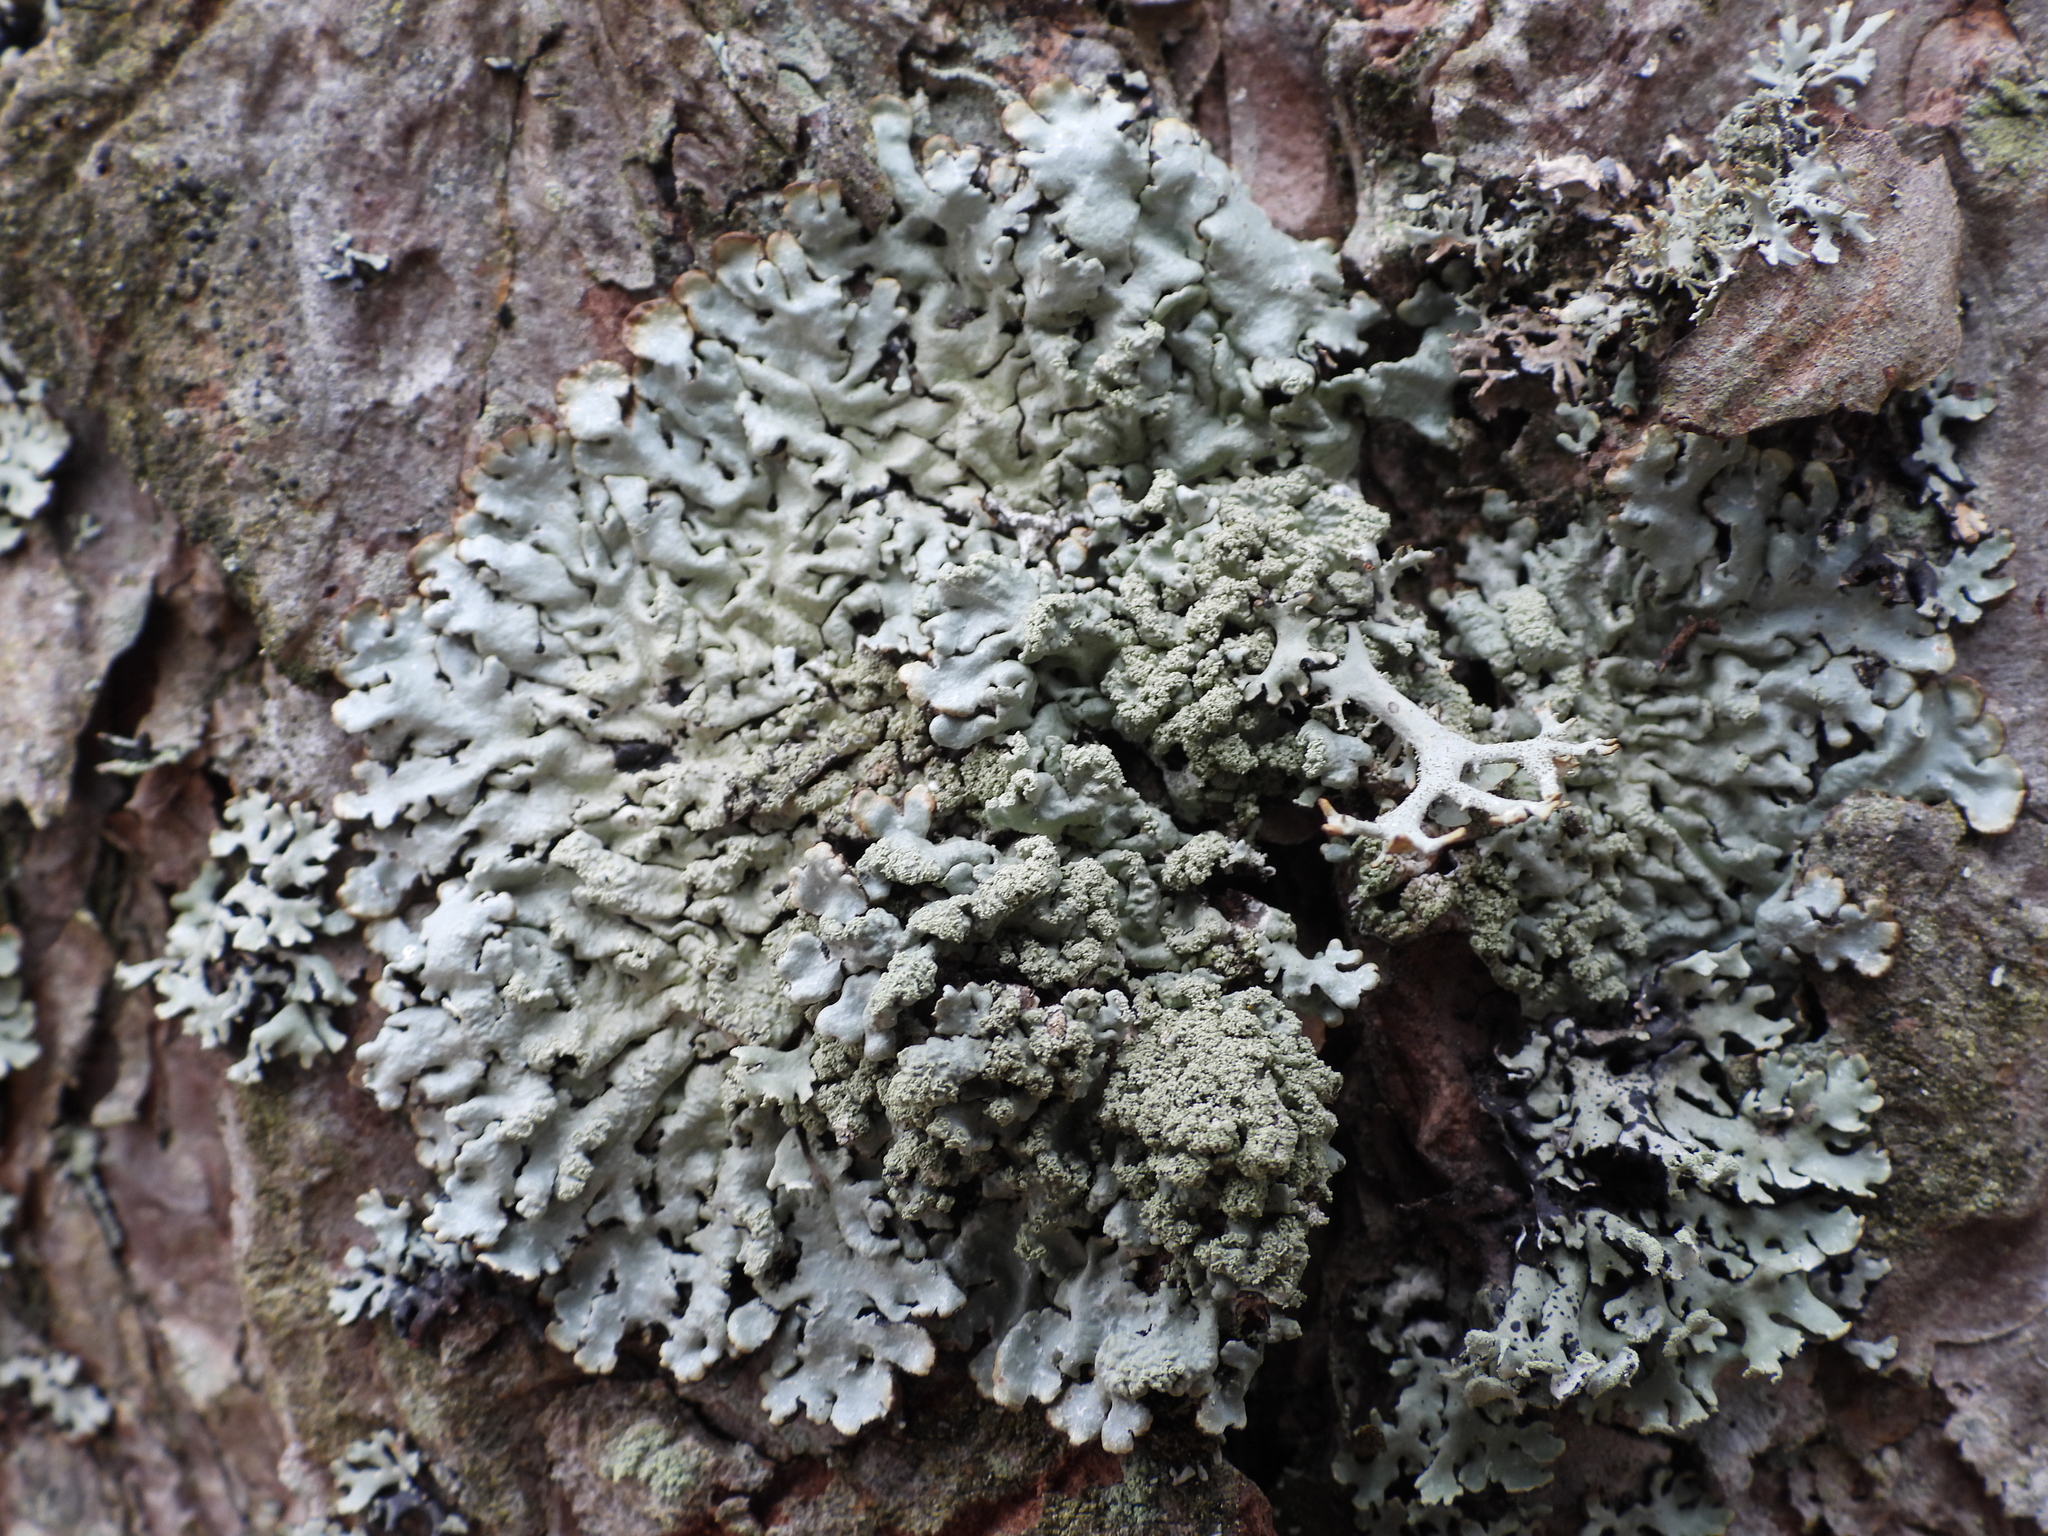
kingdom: Fungi
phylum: Ascomycota
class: Lecanoromycetes
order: Lecanorales
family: Parmeliaceae
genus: Hypogymnia
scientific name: Hypogymnia farinacea
